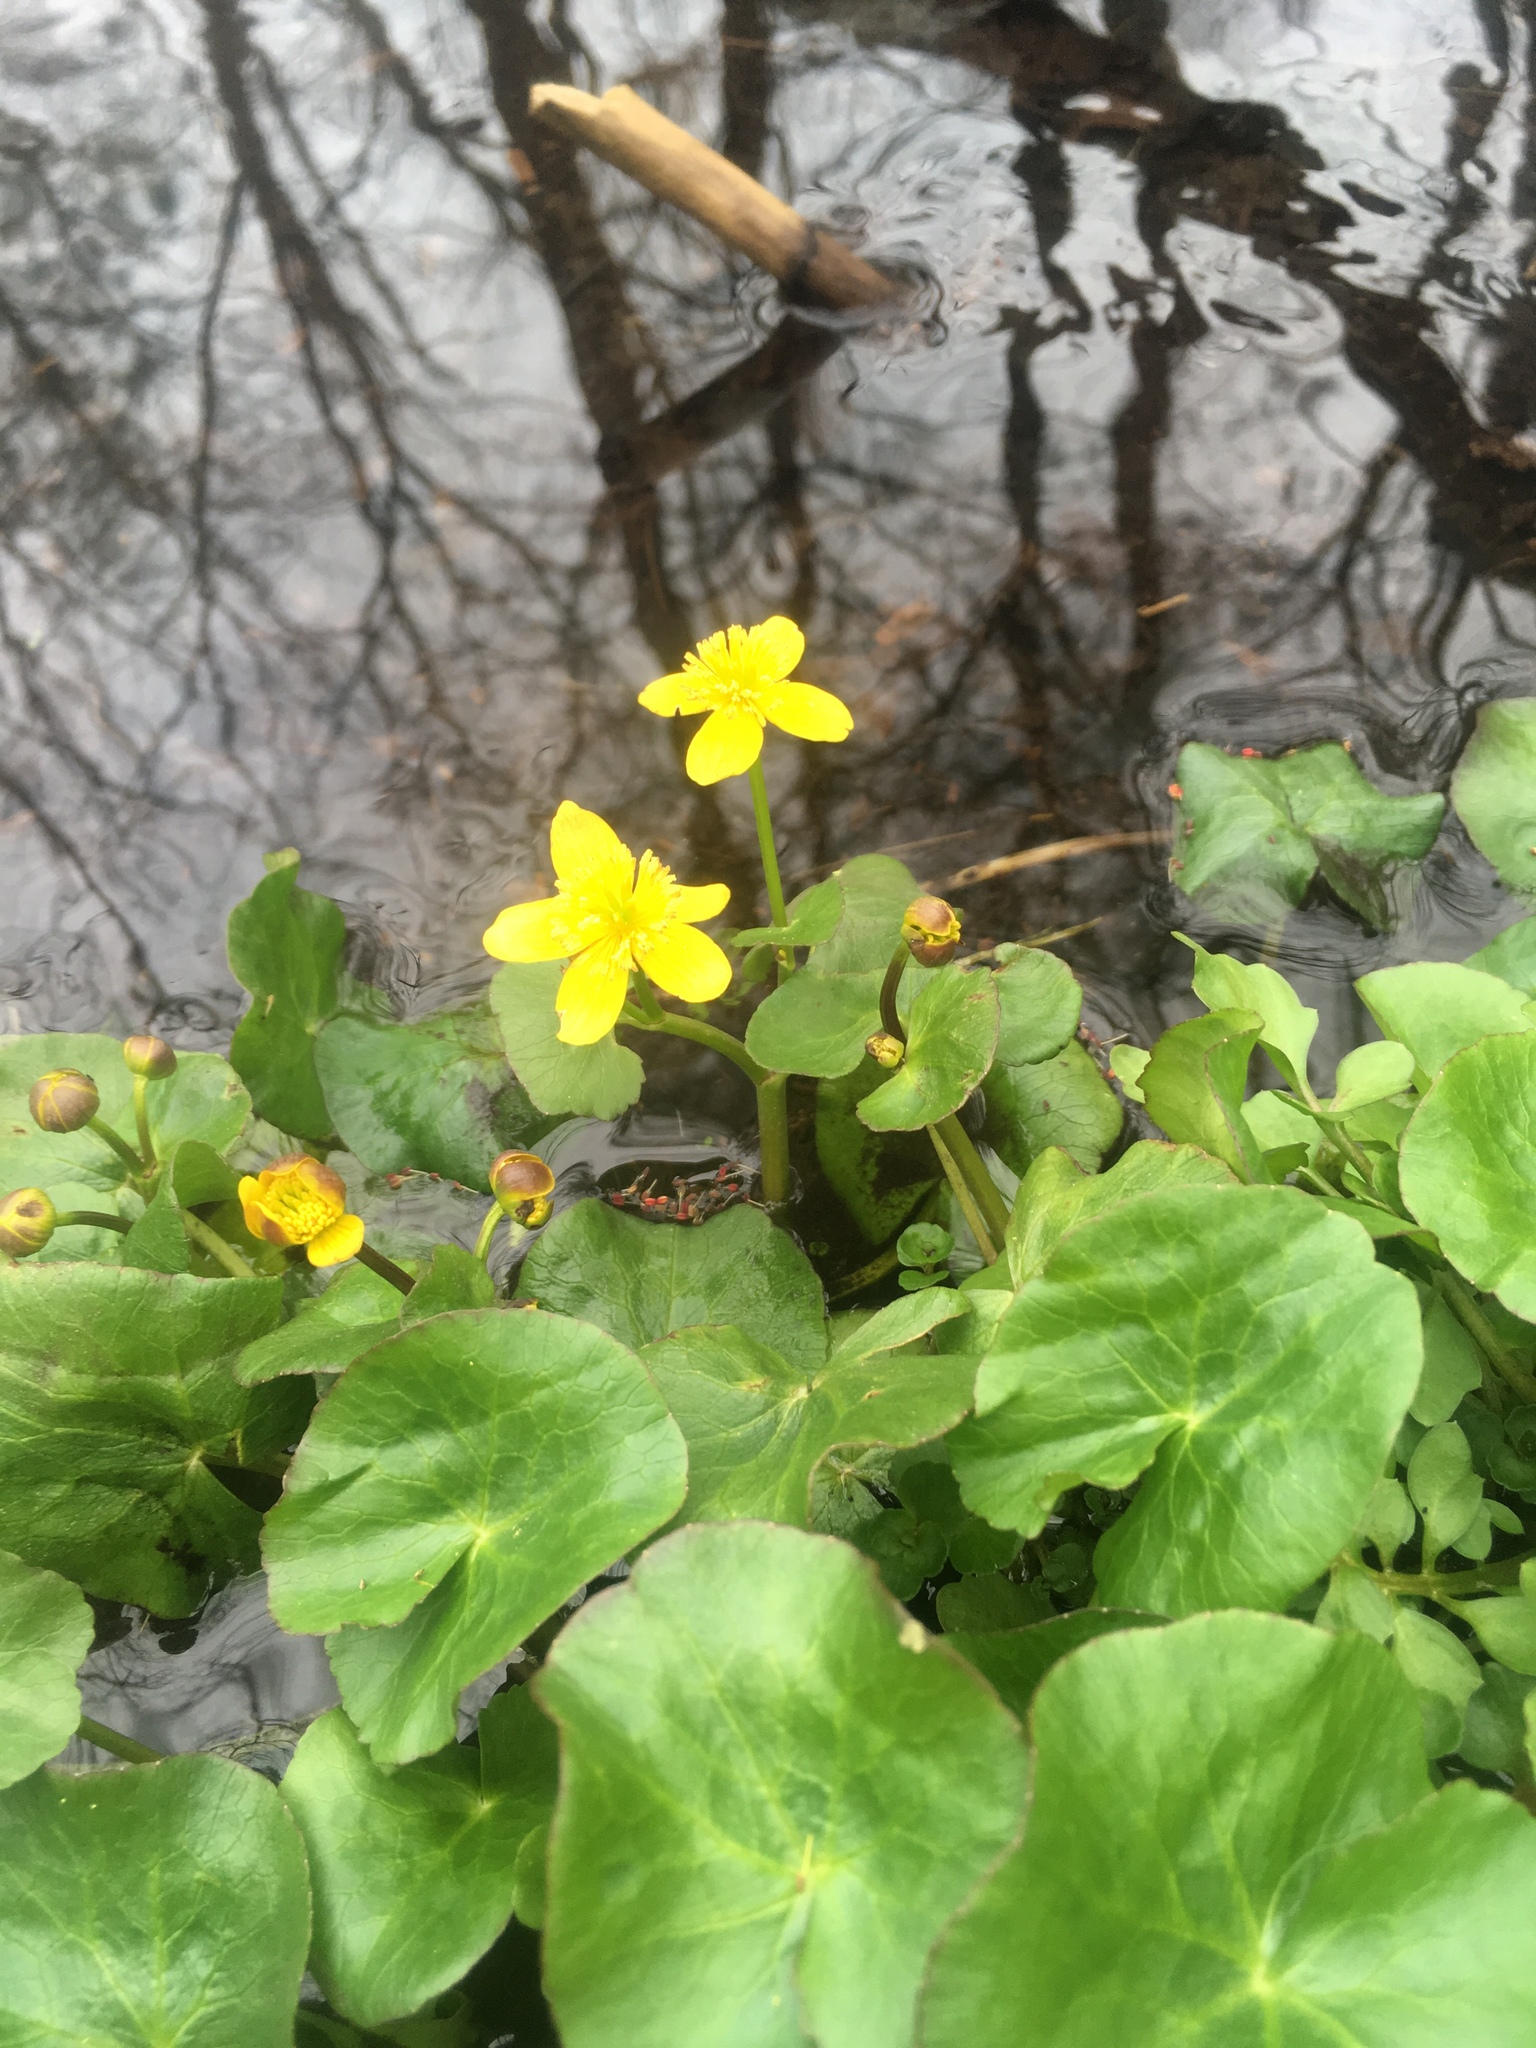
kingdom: Plantae
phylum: Tracheophyta
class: Magnoliopsida
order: Ranunculales
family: Ranunculaceae
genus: Caltha
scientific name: Caltha palustris
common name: Marsh marigold
